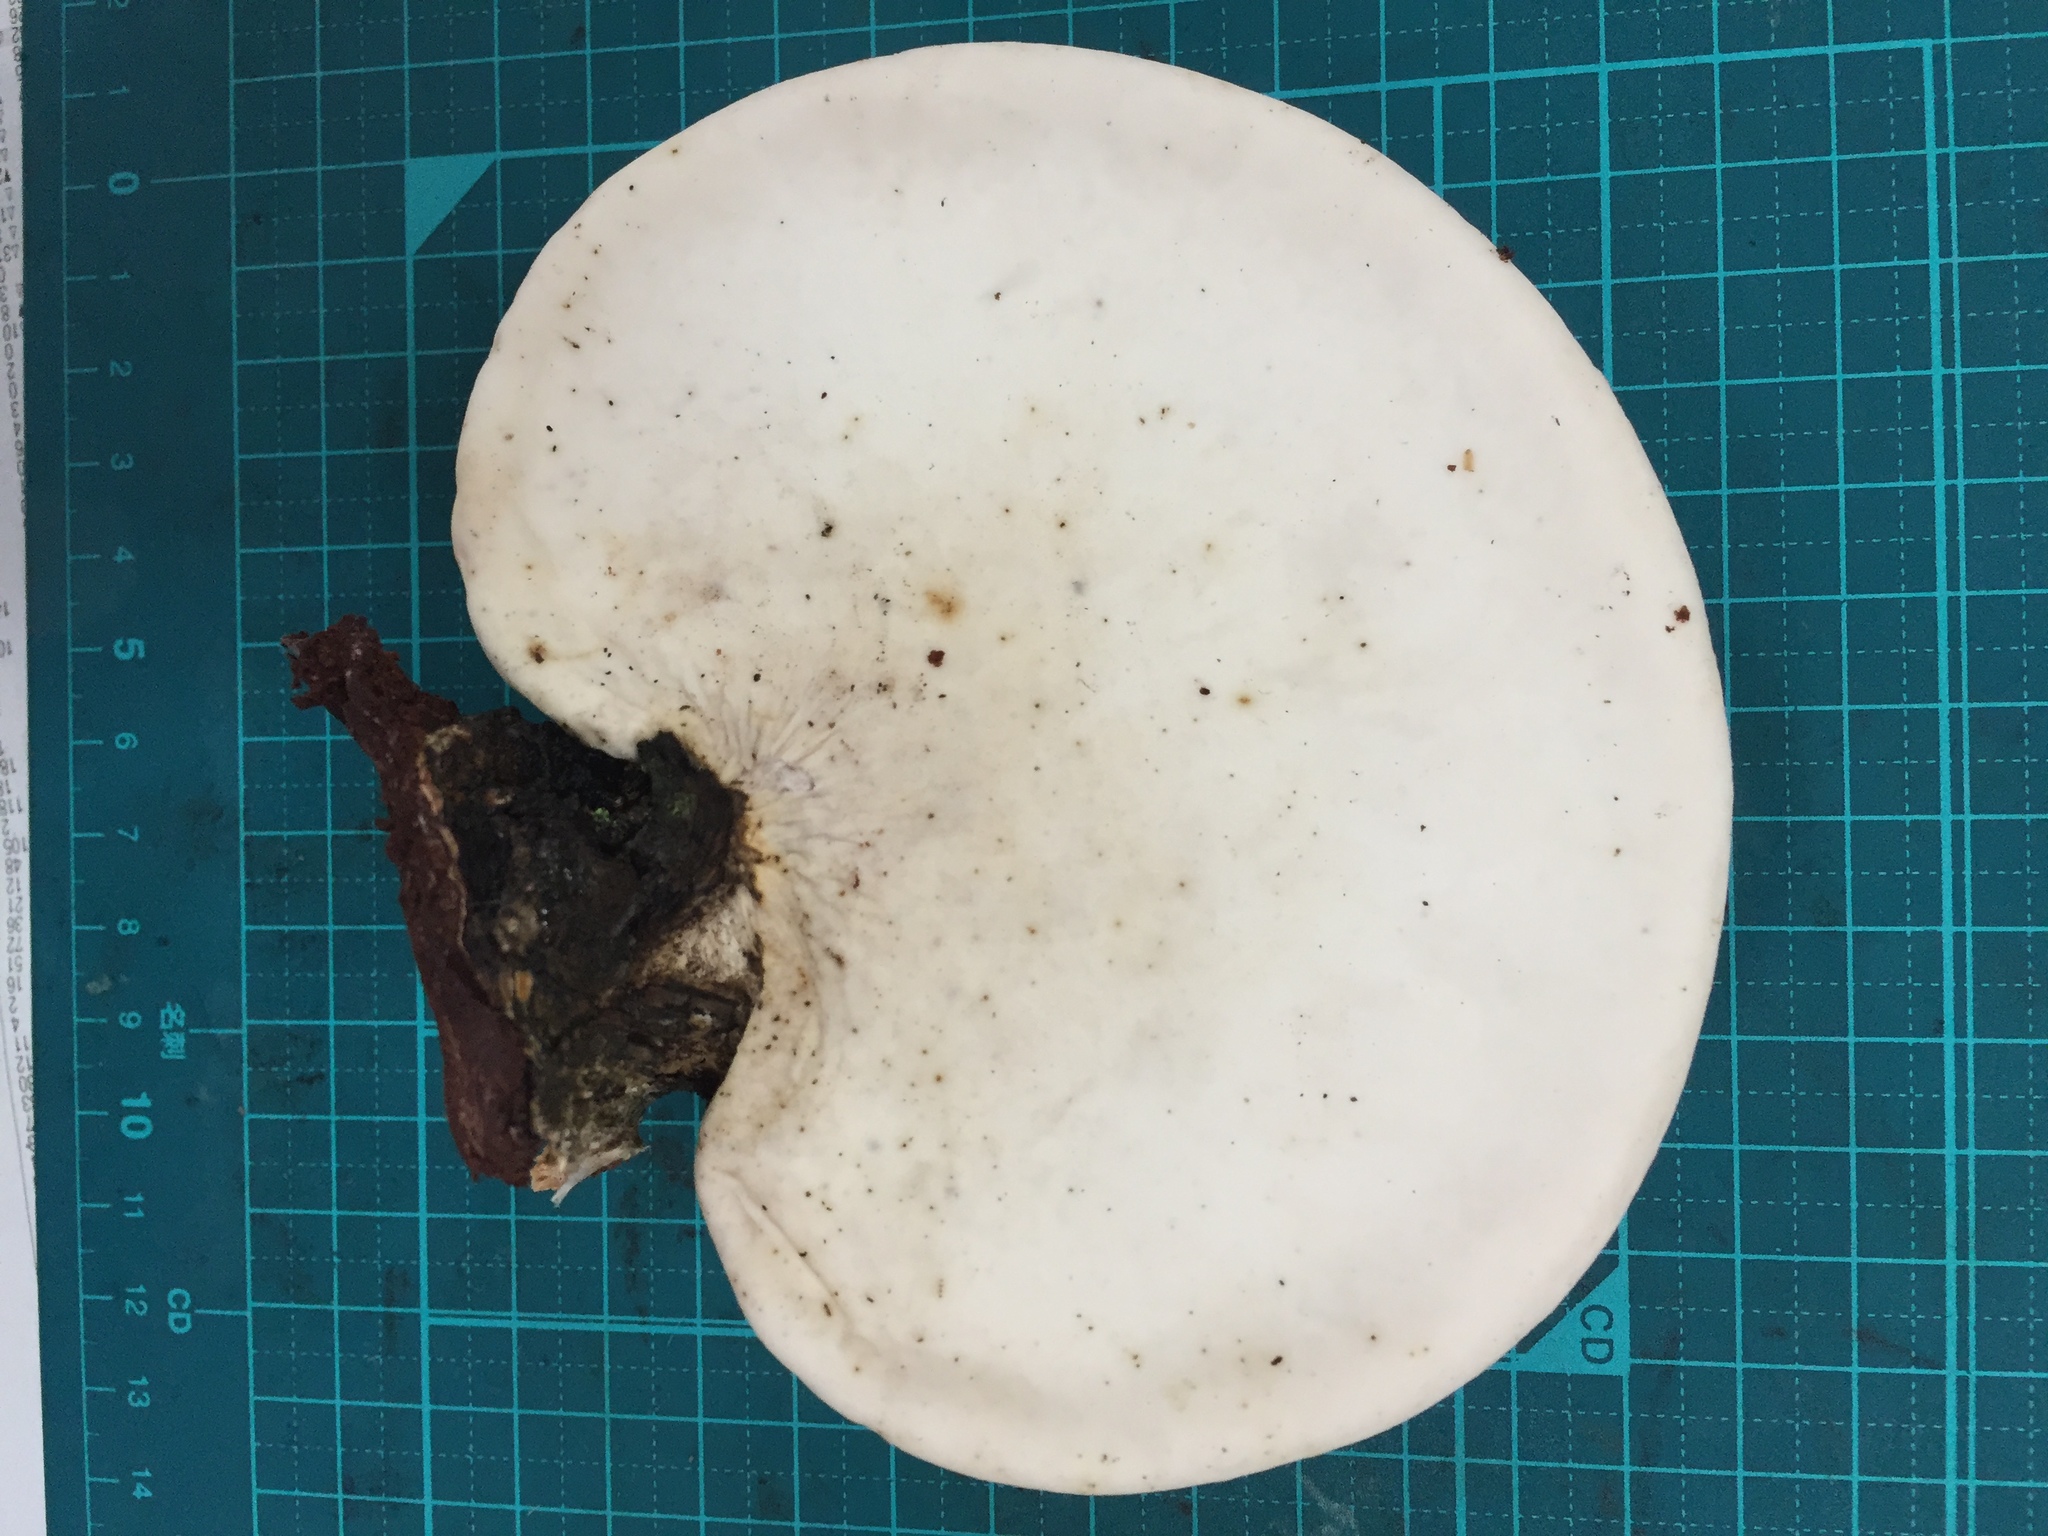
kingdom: Fungi
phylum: Basidiomycota
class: Agaricomycetes
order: Polyporales
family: Fomitopsidaceae
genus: Fomitopsis
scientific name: Fomitopsis betulina
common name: Birch polypore
